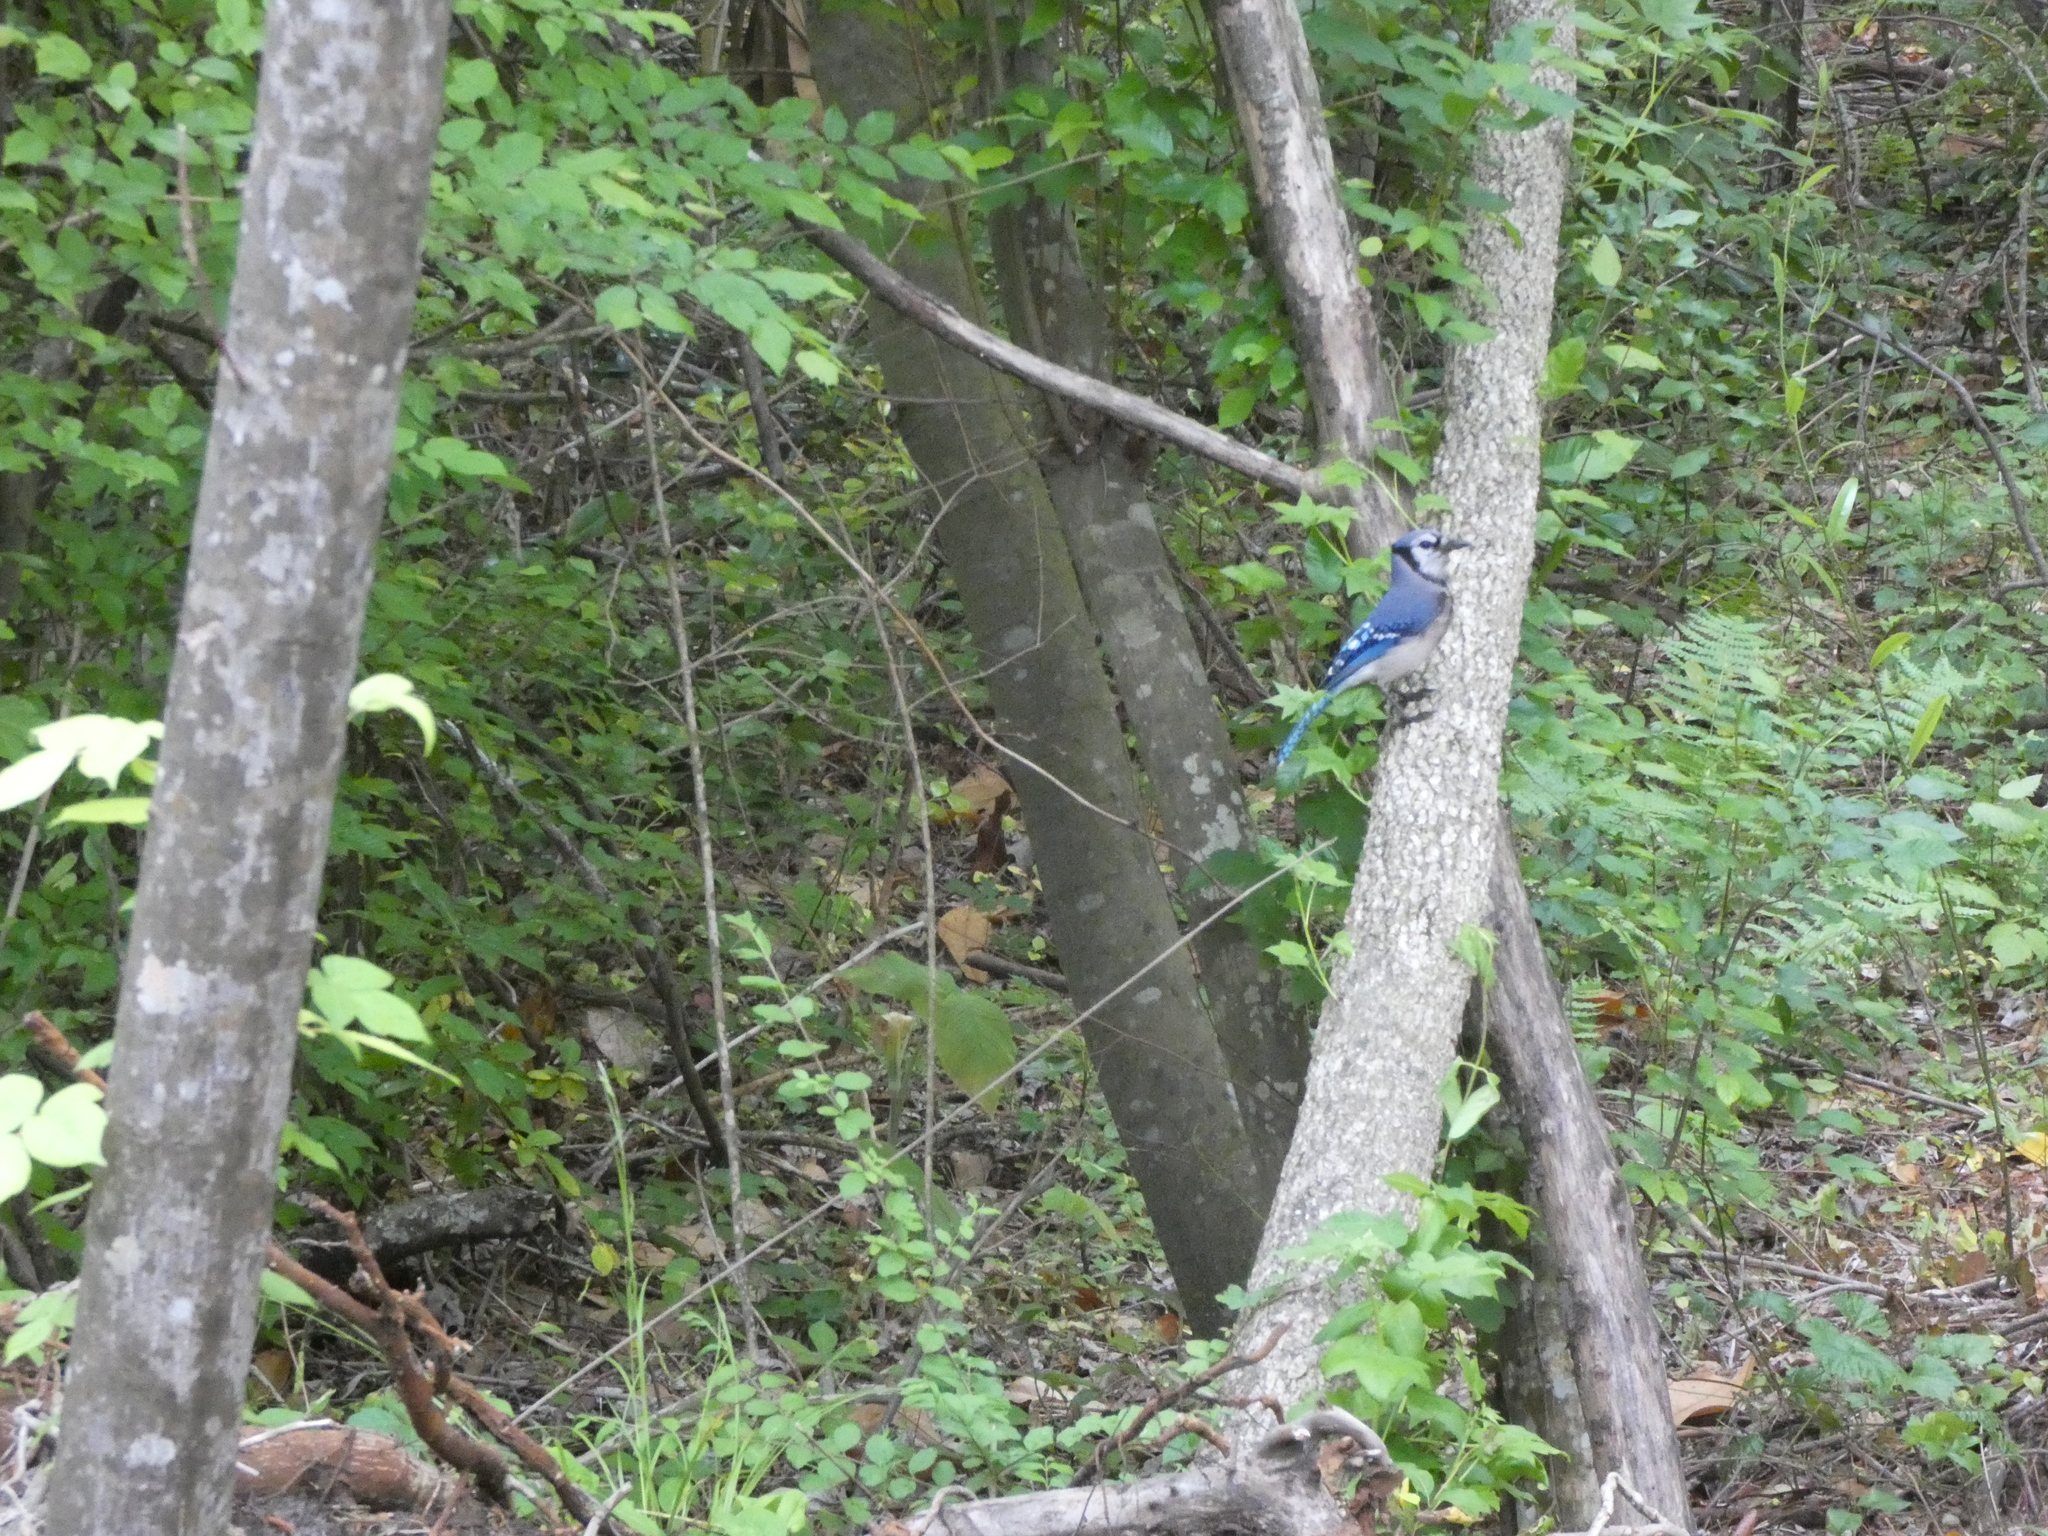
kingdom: Animalia
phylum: Chordata
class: Aves
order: Passeriformes
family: Corvidae
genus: Cyanocitta
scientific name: Cyanocitta cristata
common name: Blue jay
